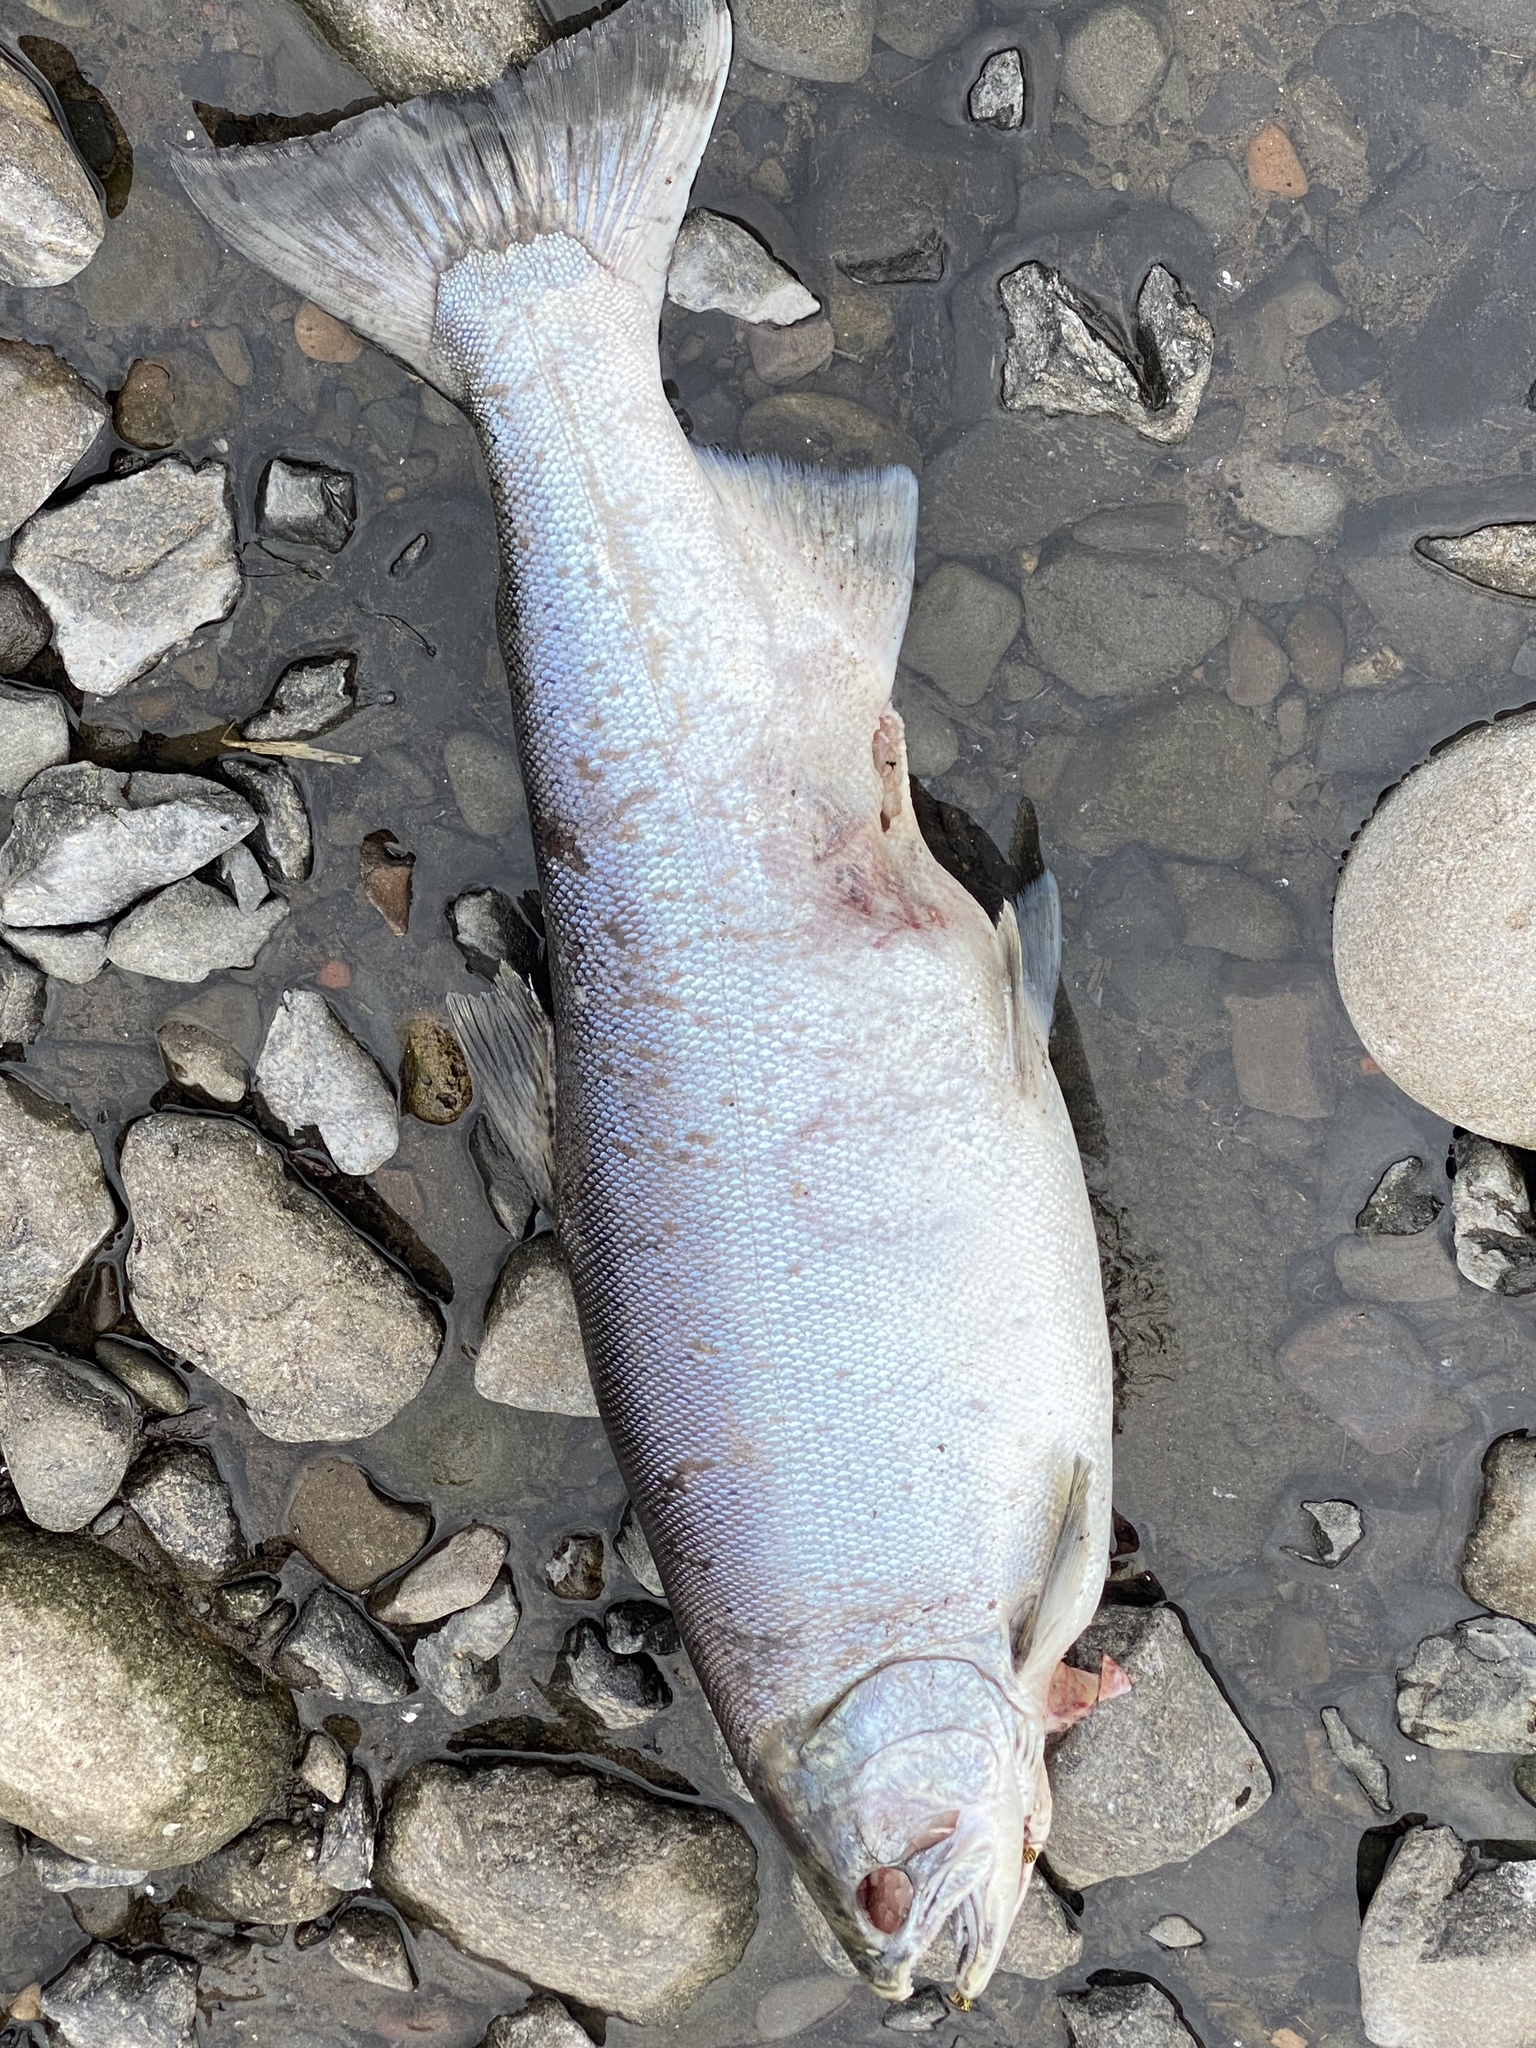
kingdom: Animalia
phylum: Chordata
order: Salmoniformes
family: Salmonidae
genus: Oncorhynchus
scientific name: Oncorhynchus kisutch
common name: Coho salmon
